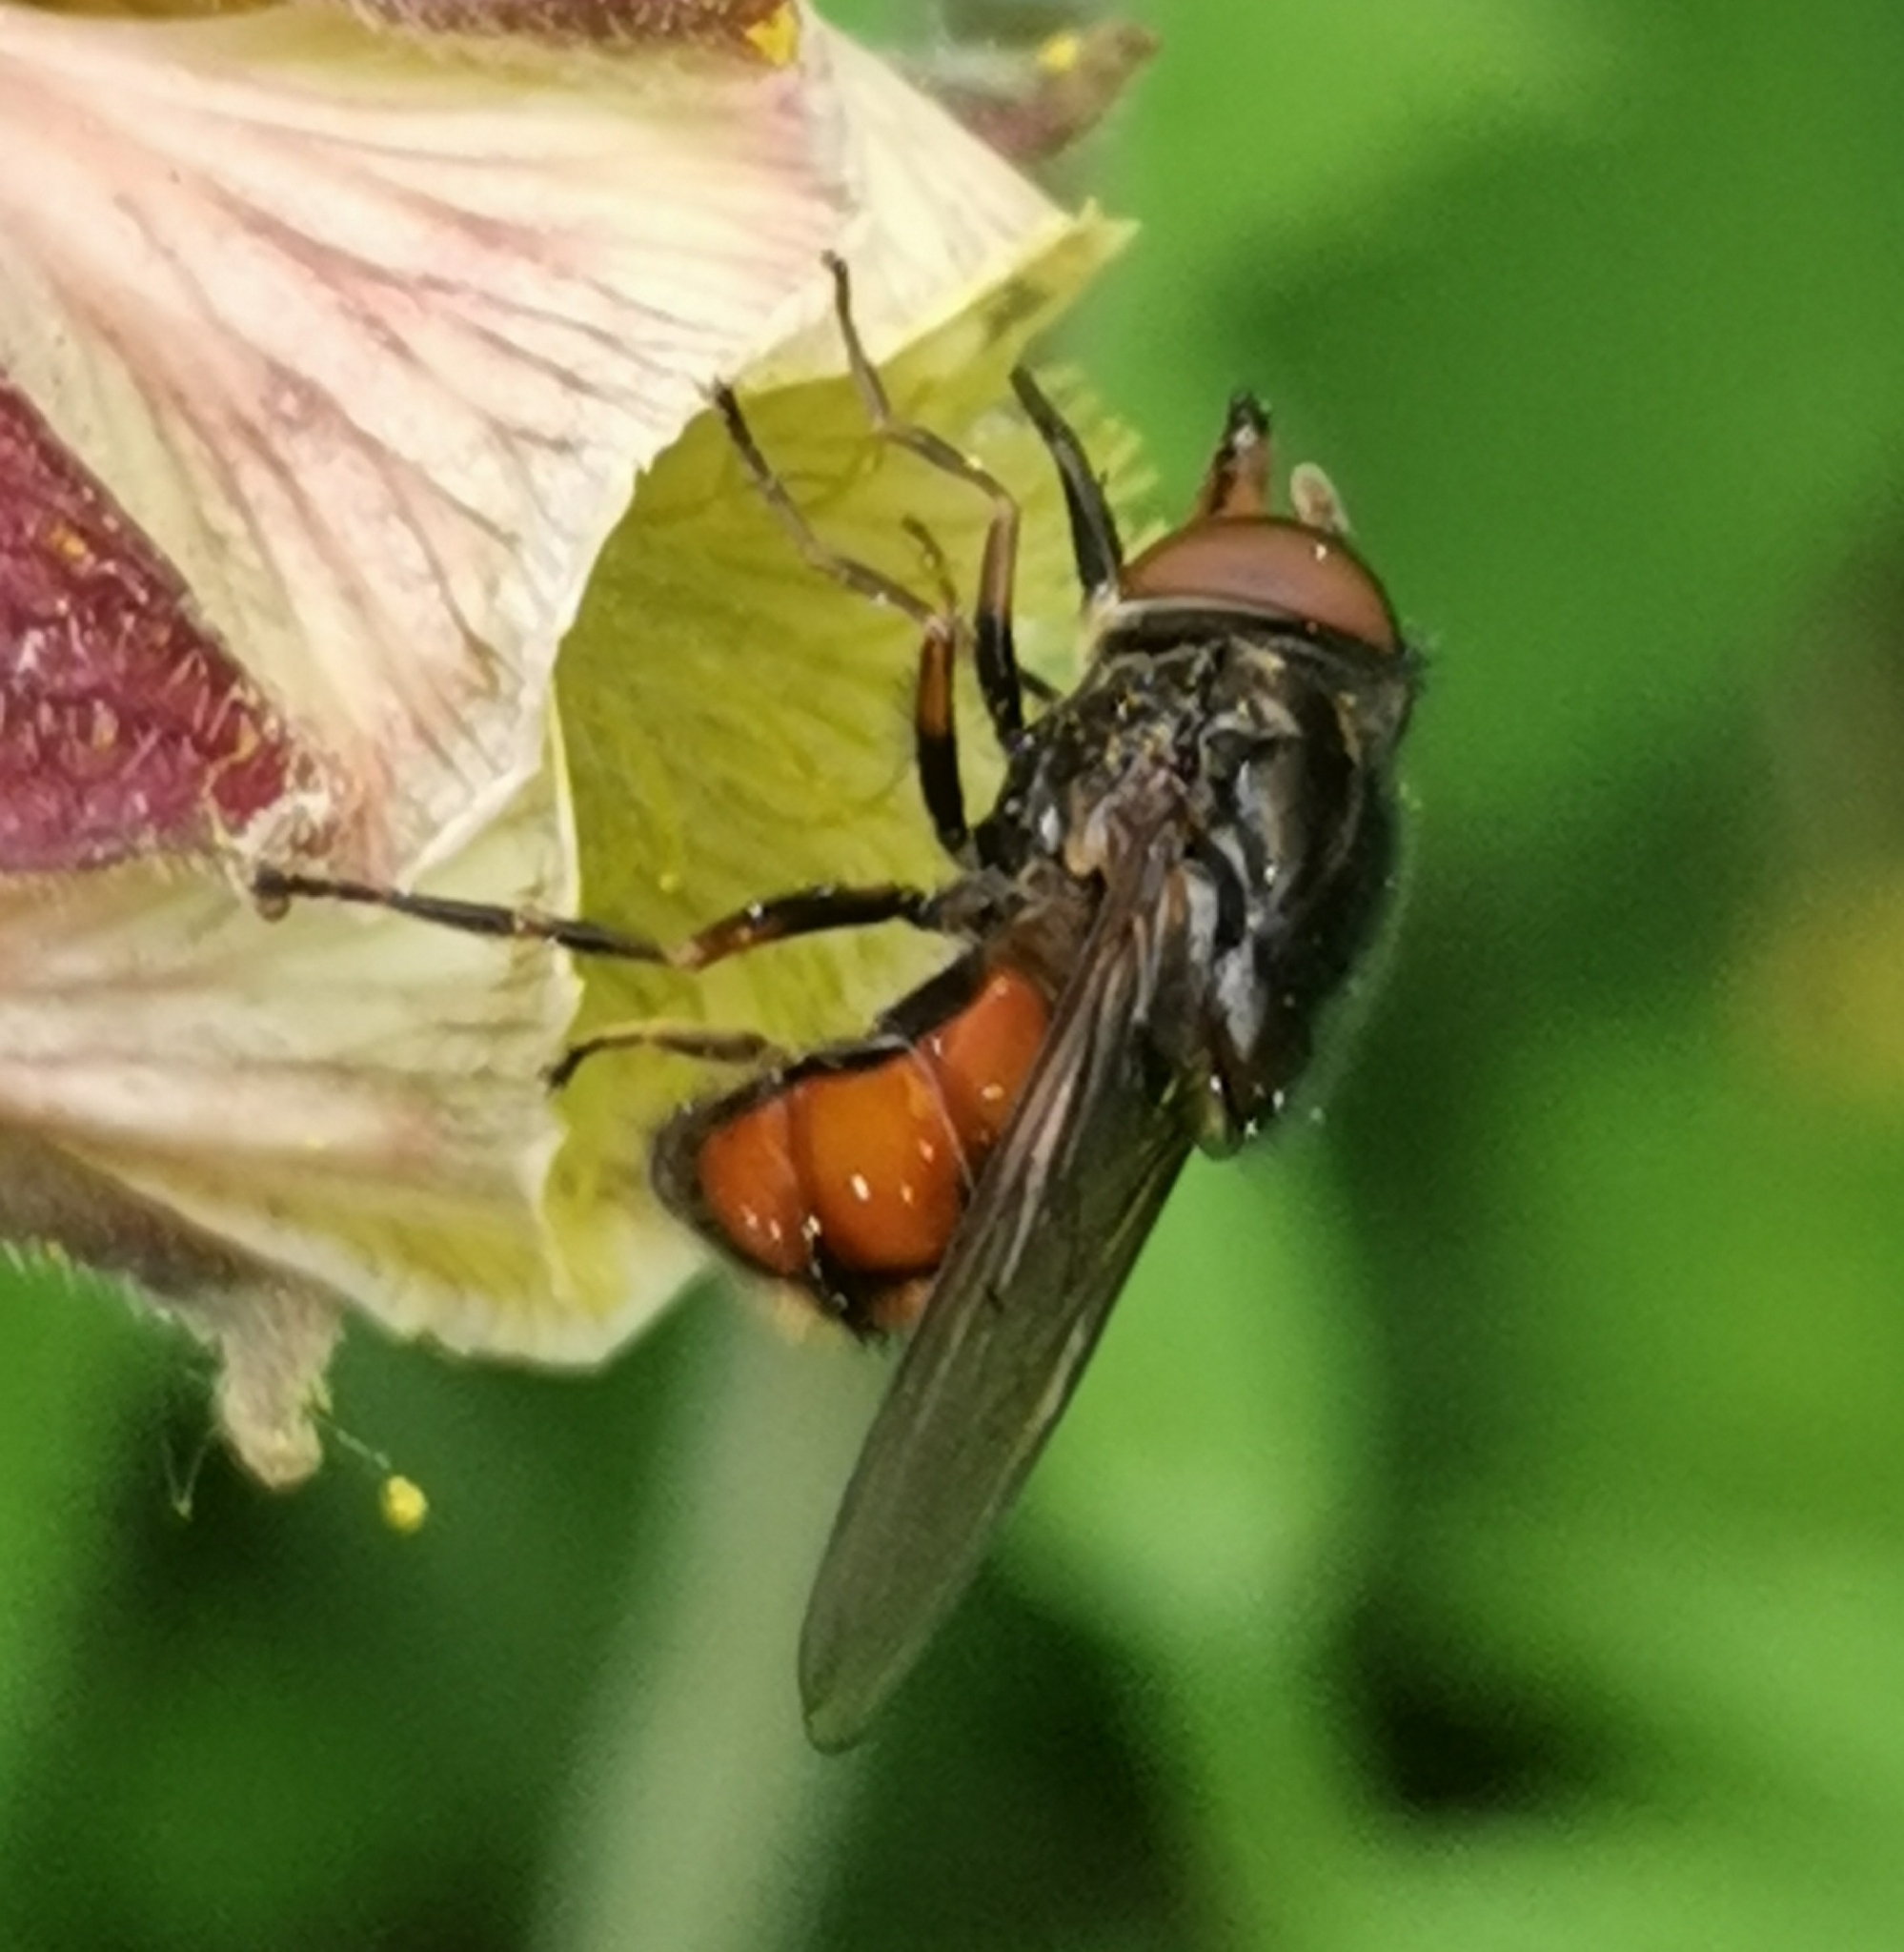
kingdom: Animalia
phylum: Arthropoda
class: Insecta
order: Diptera
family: Syrphidae
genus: Rhingia
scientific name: Rhingia campestris
